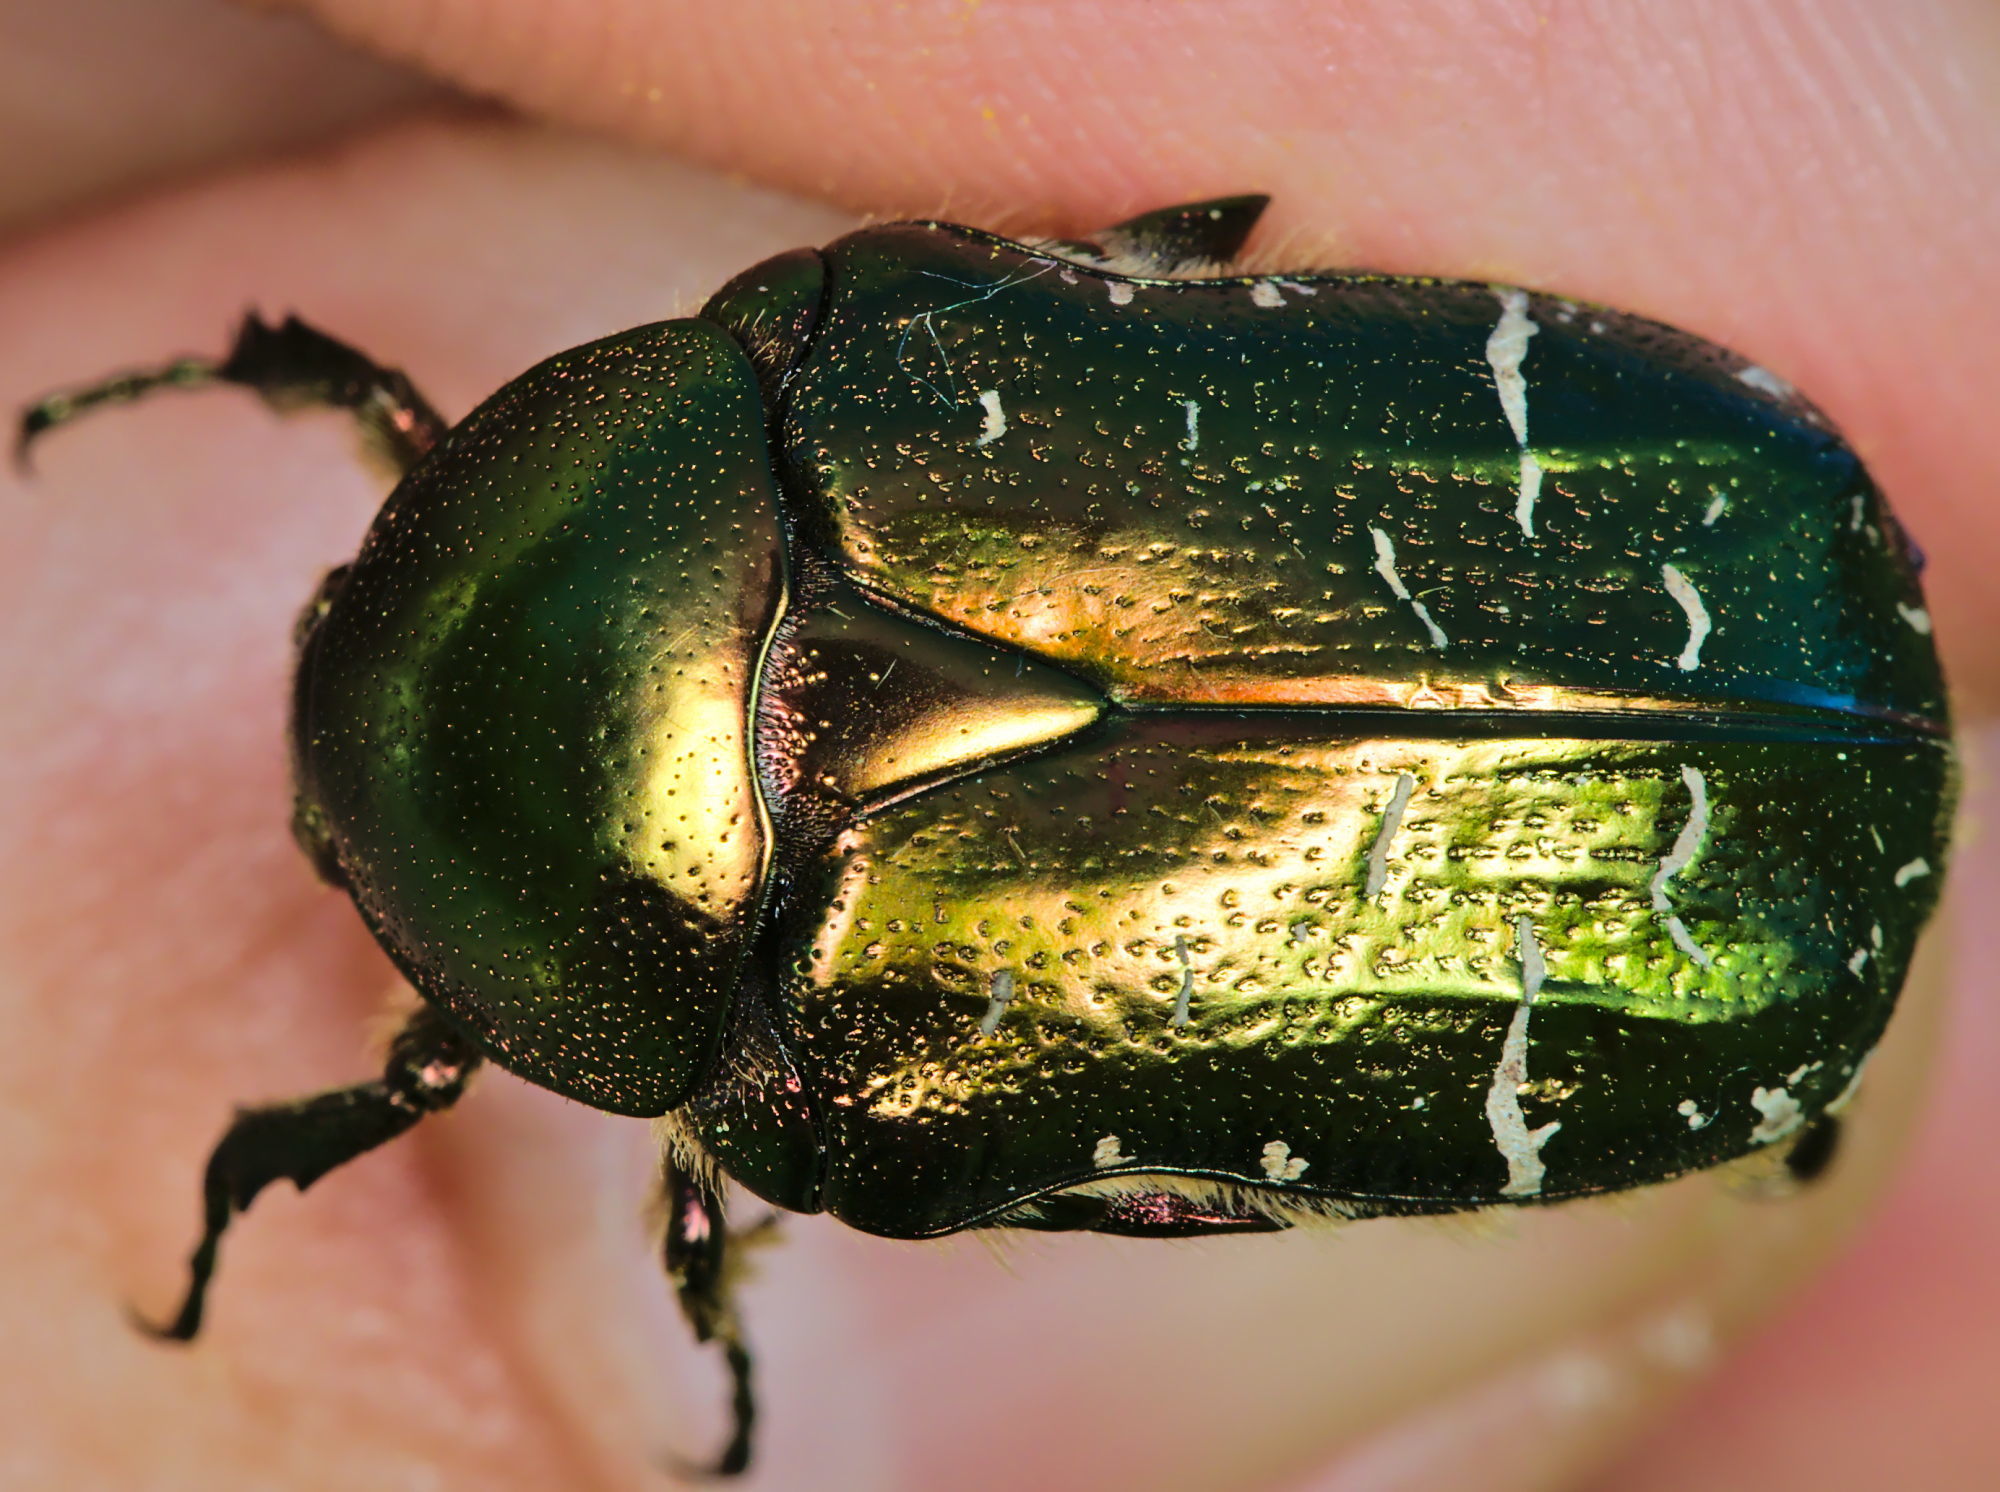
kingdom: Animalia
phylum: Arthropoda
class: Insecta
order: Coleoptera
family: Scarabaeidae
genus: Cetonia
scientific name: Cetonia aurata
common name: Rose chafer
